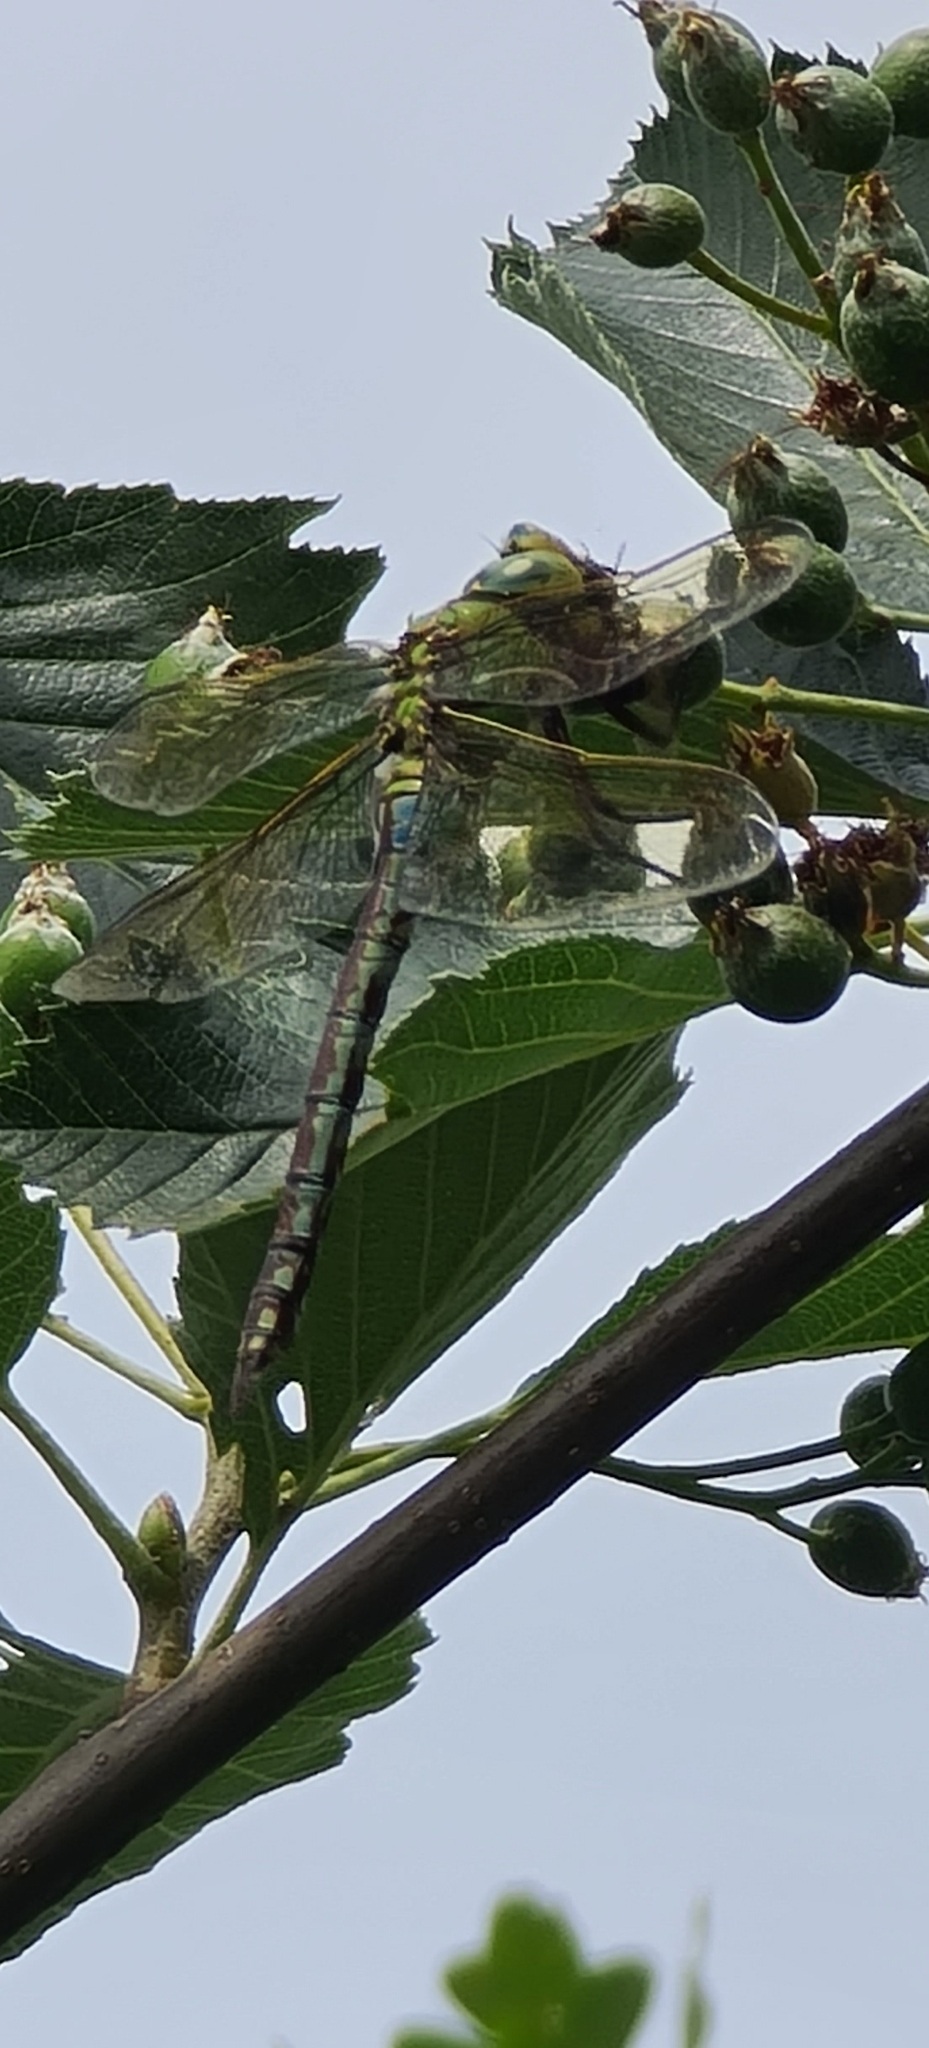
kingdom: Animalia
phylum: Arthropoda
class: Insecta
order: Odonata
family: Aeshnidae
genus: Anax
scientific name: Anax imperator
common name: Emperor dragonfly
